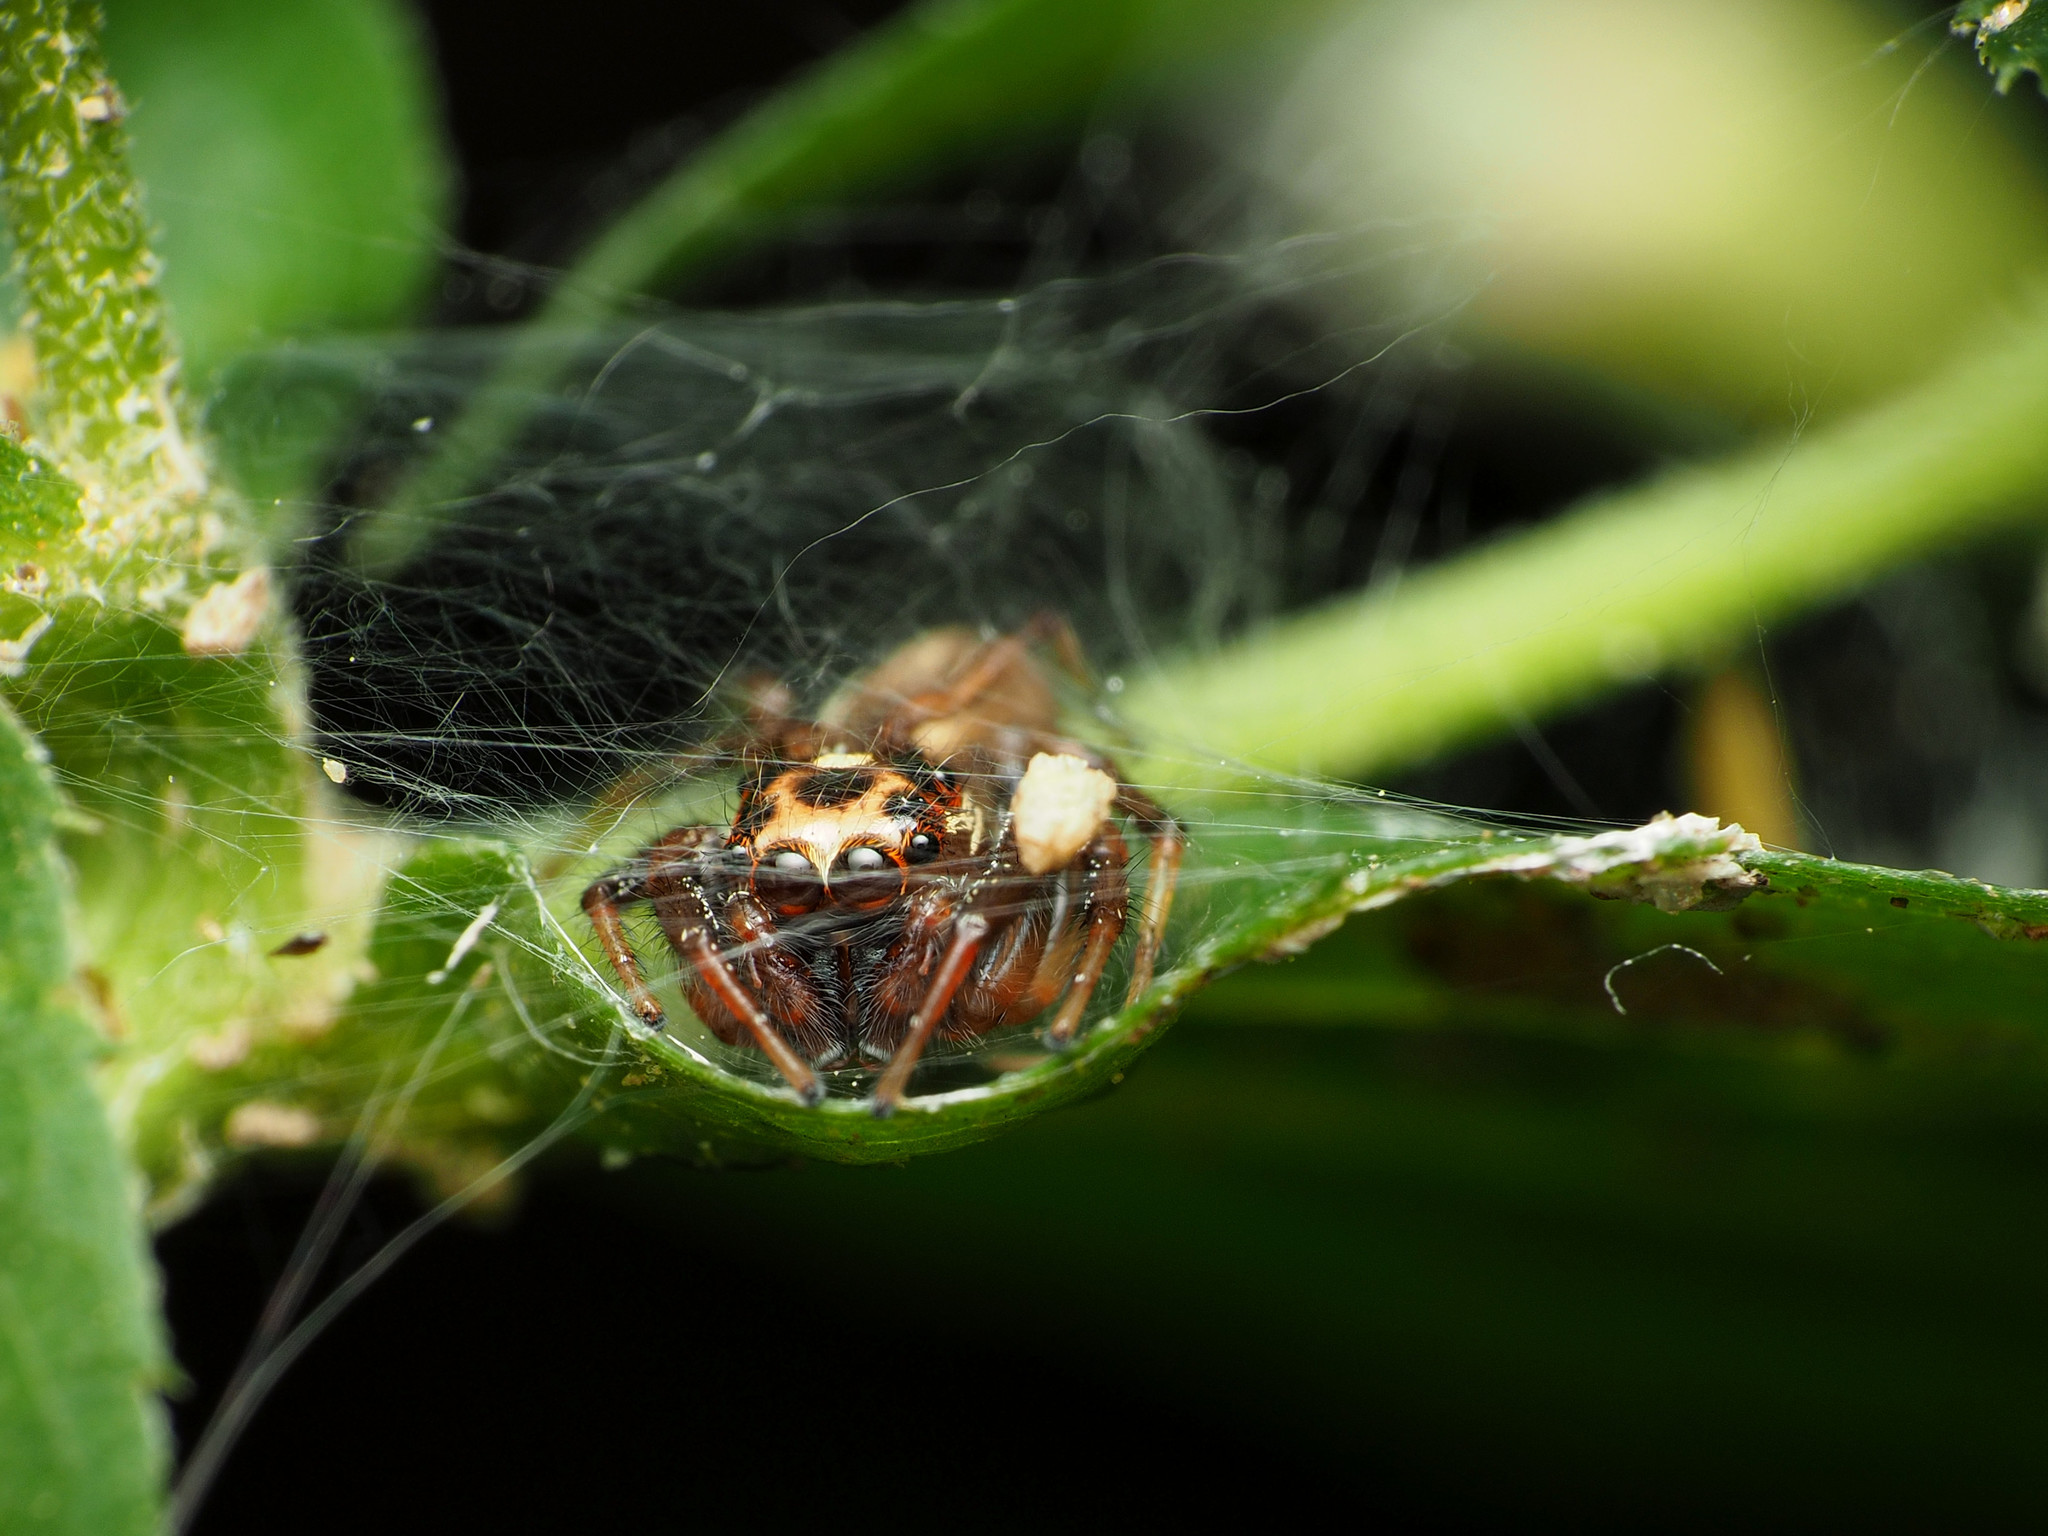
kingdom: Animalia
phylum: Arthropoda
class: Arachnida
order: Araneae
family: Salticidae
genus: Colonus
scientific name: Colonus sylvanus
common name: Jumping spiders
